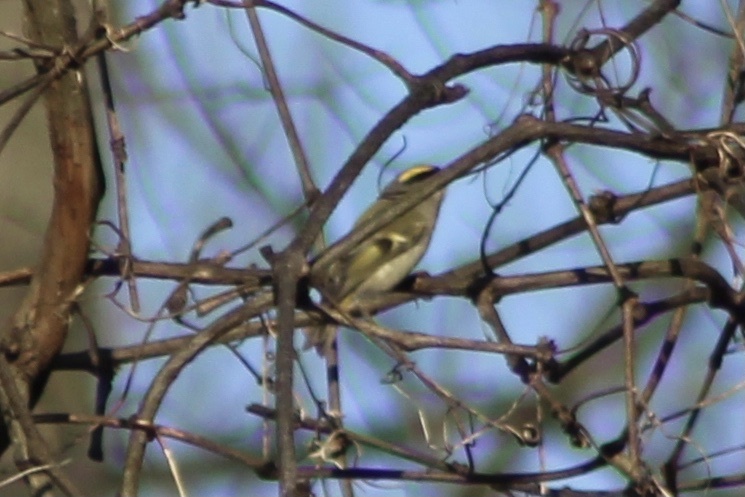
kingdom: Animalia
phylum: Chordata
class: Aves
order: Passeriformes
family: Regulidae
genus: Regulus
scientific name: Regulus satrapa
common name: Golden-crowned kinglet
